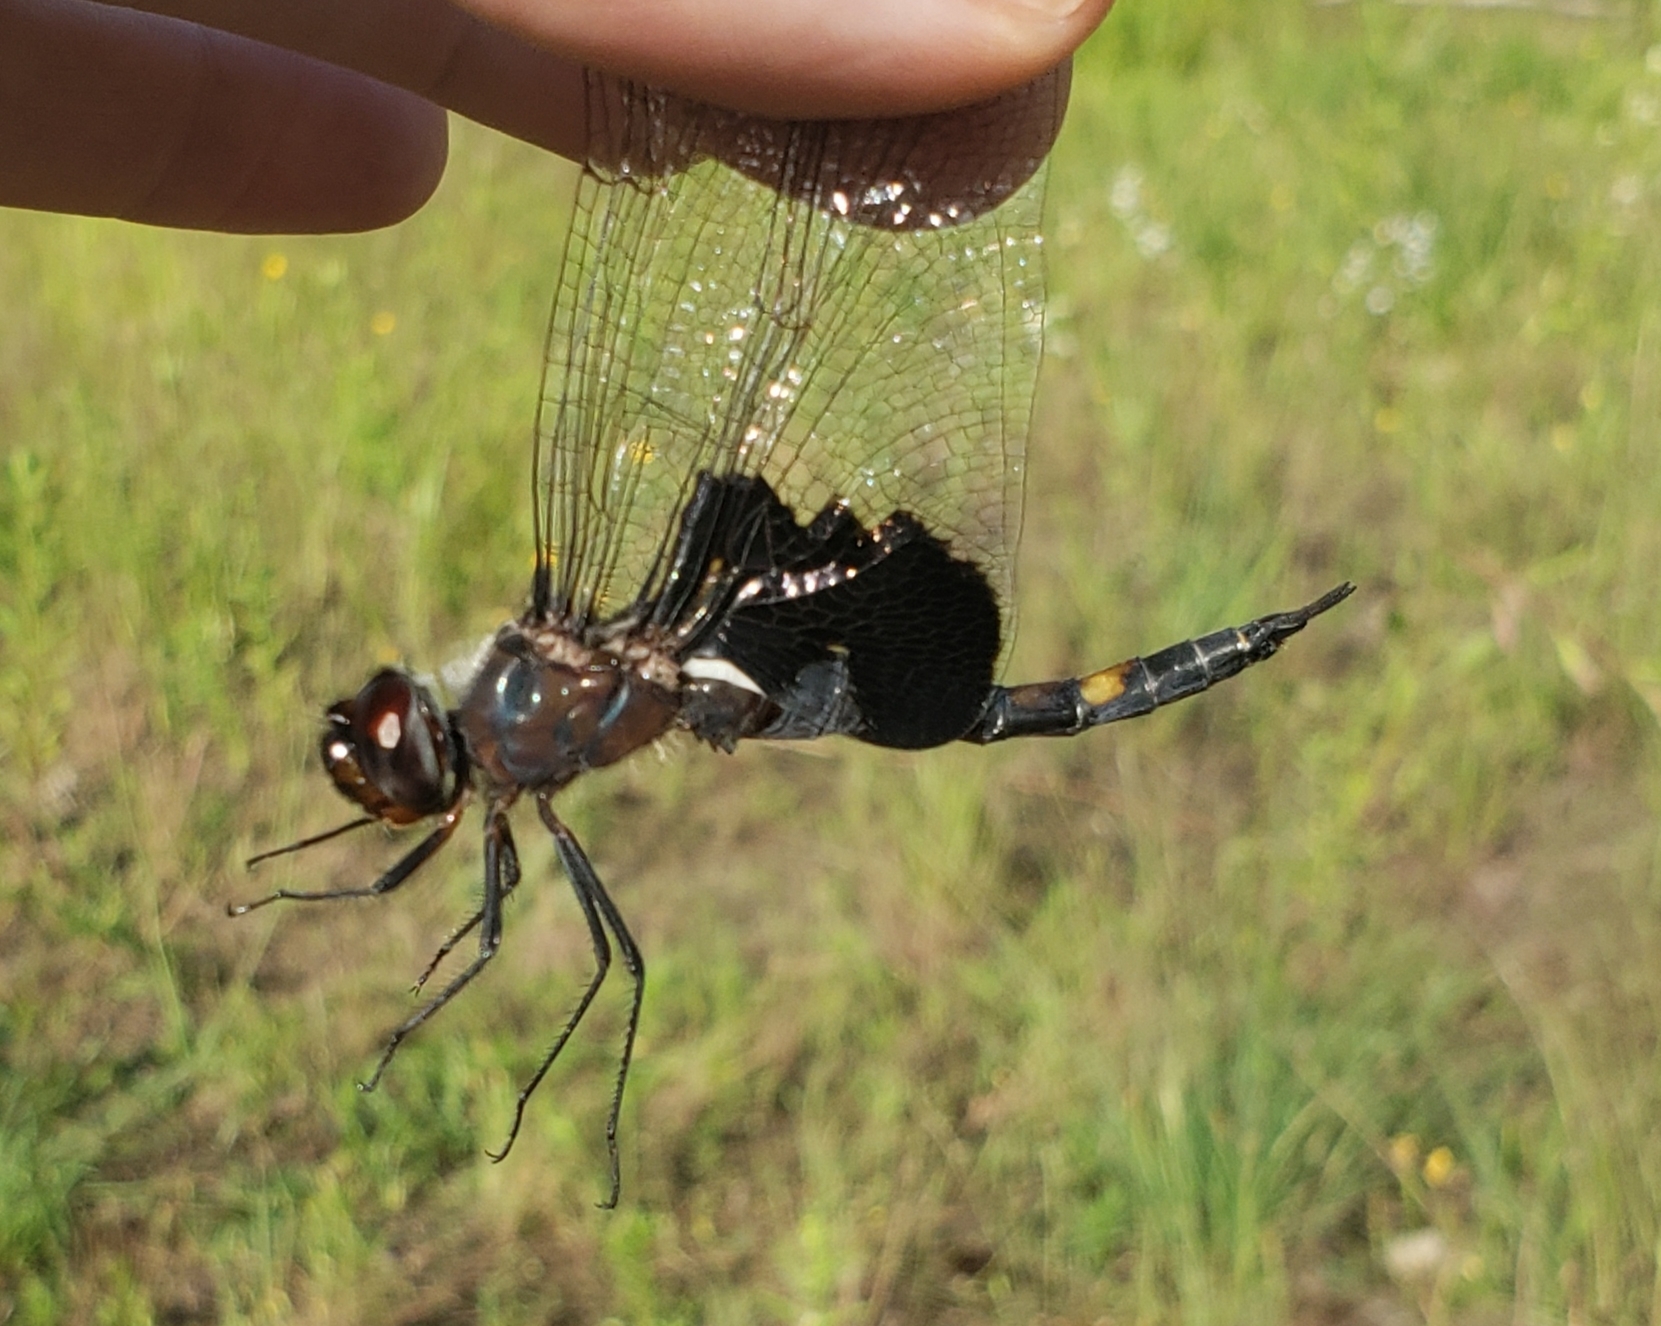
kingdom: Animalia
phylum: Arthropoda
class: Insecta
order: Odonata
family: Libellulidae
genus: Tramea
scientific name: Tramea lacerata
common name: Black saddlebags
